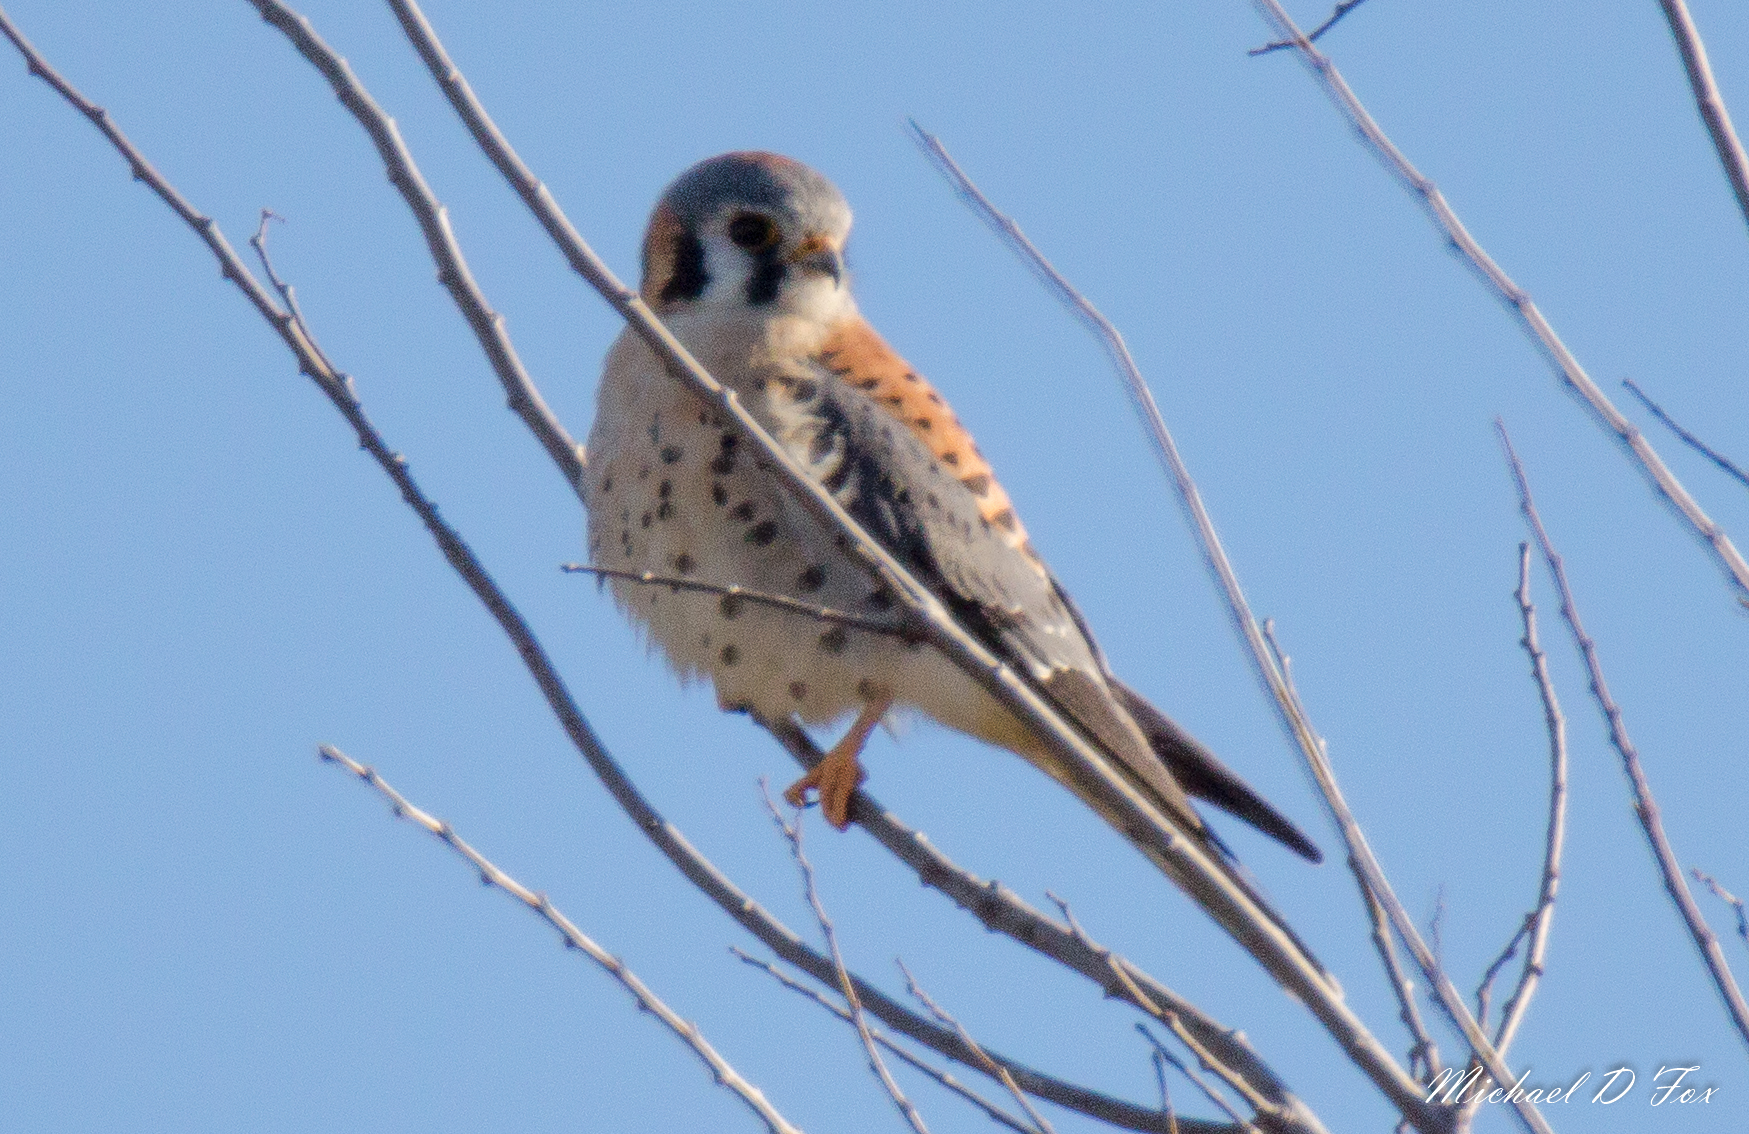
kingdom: Animalia
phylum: Chordata
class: Aves
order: Falconiformes
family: Falconidae
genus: Falco
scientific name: Falco sparverius
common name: American kestrel
